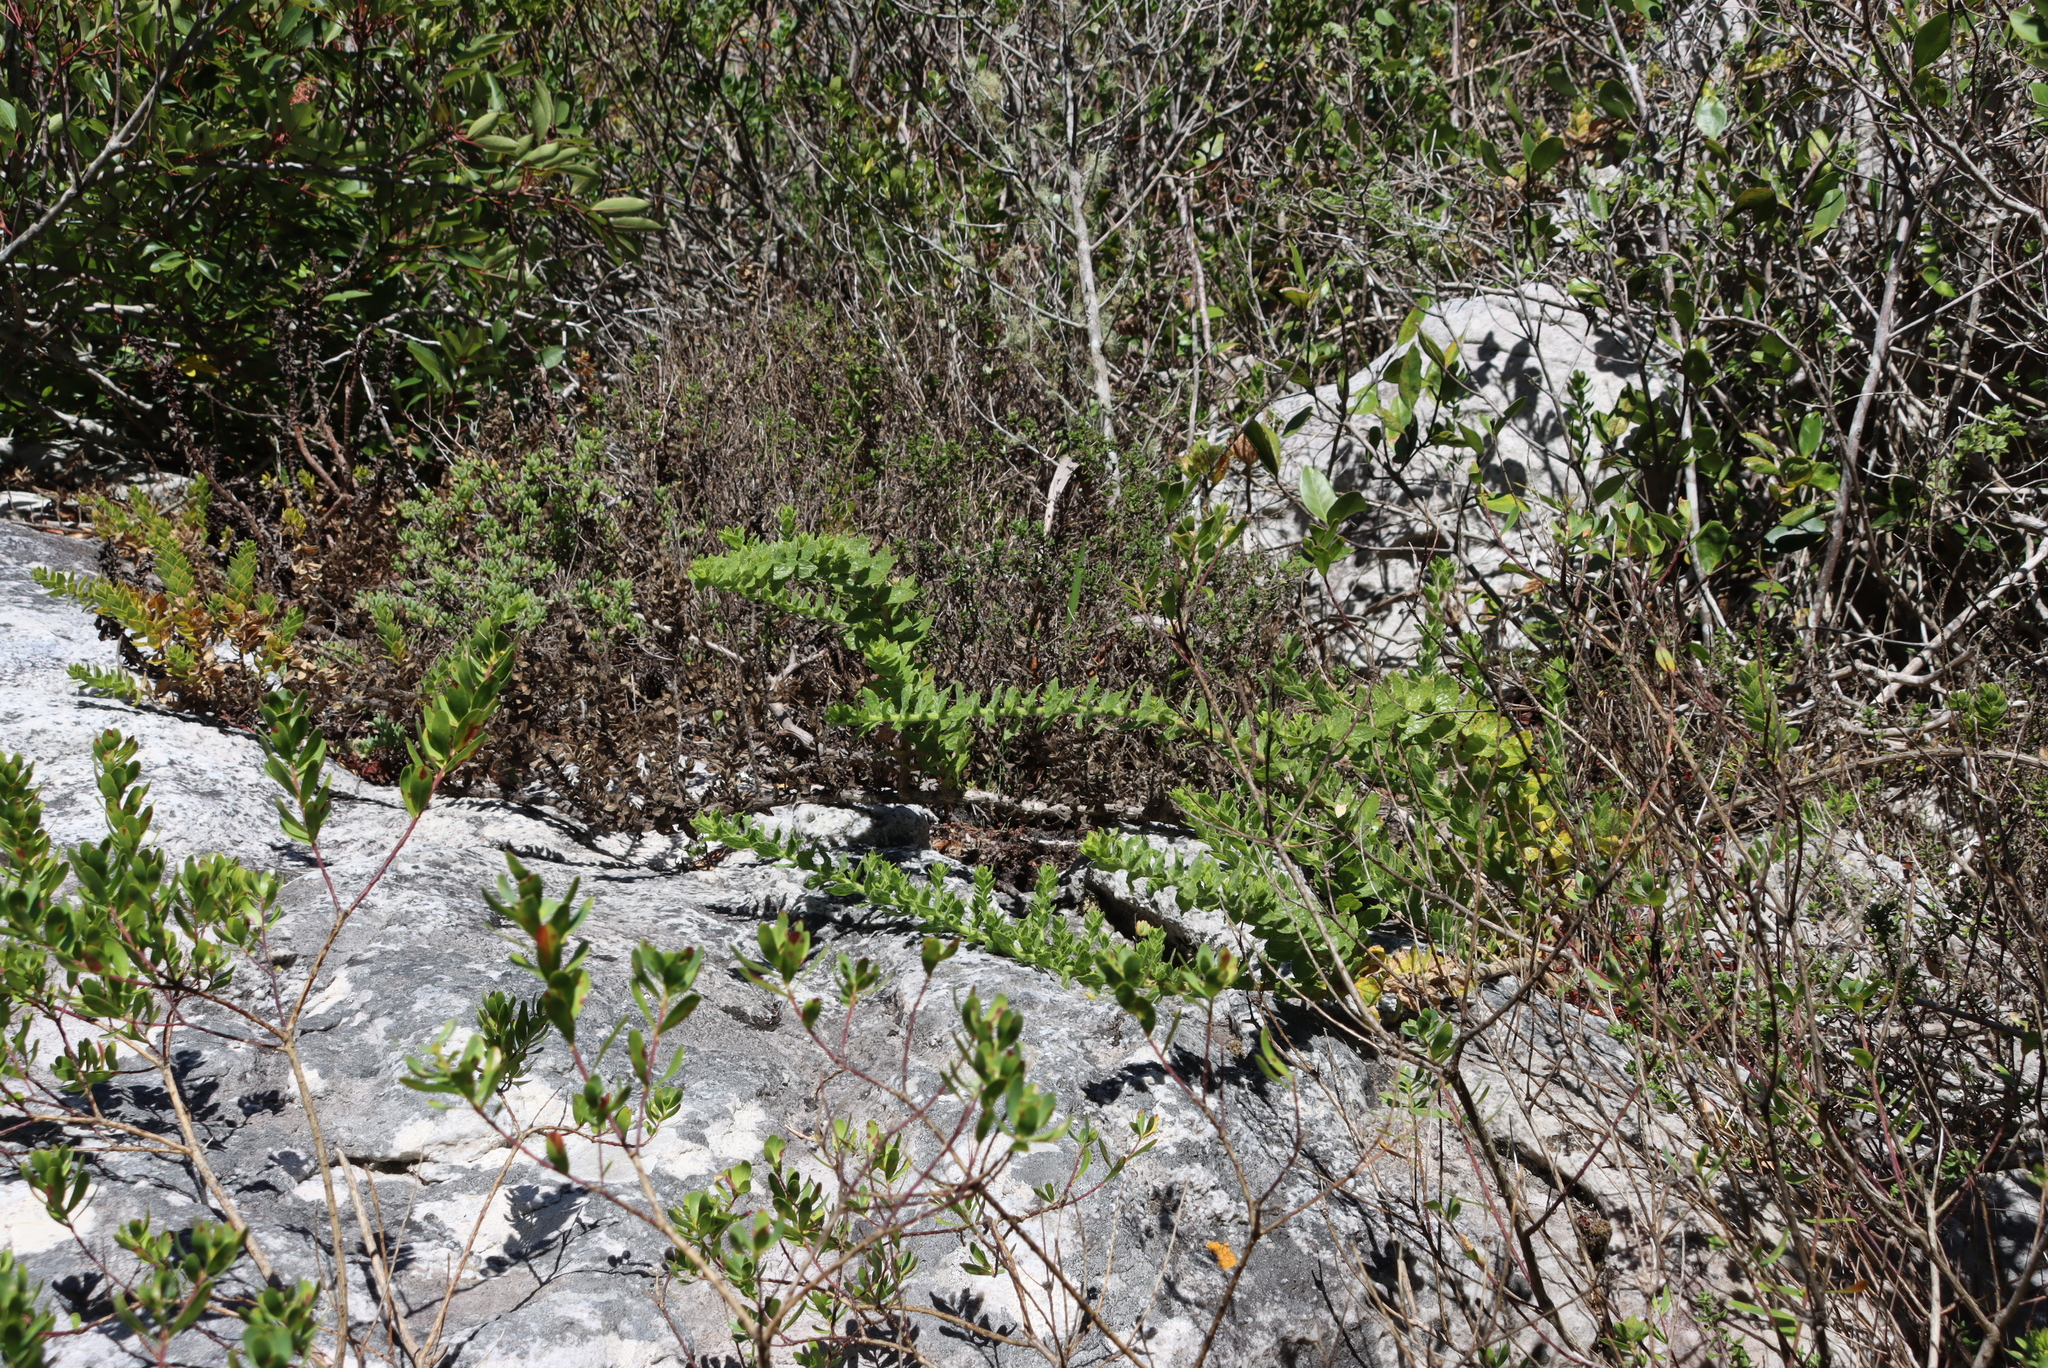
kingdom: Plantae
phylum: Tracheophyta
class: Magnoliopsida
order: Lamiales
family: Scrophulariaceae
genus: Oftia
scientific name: Oftia africana
